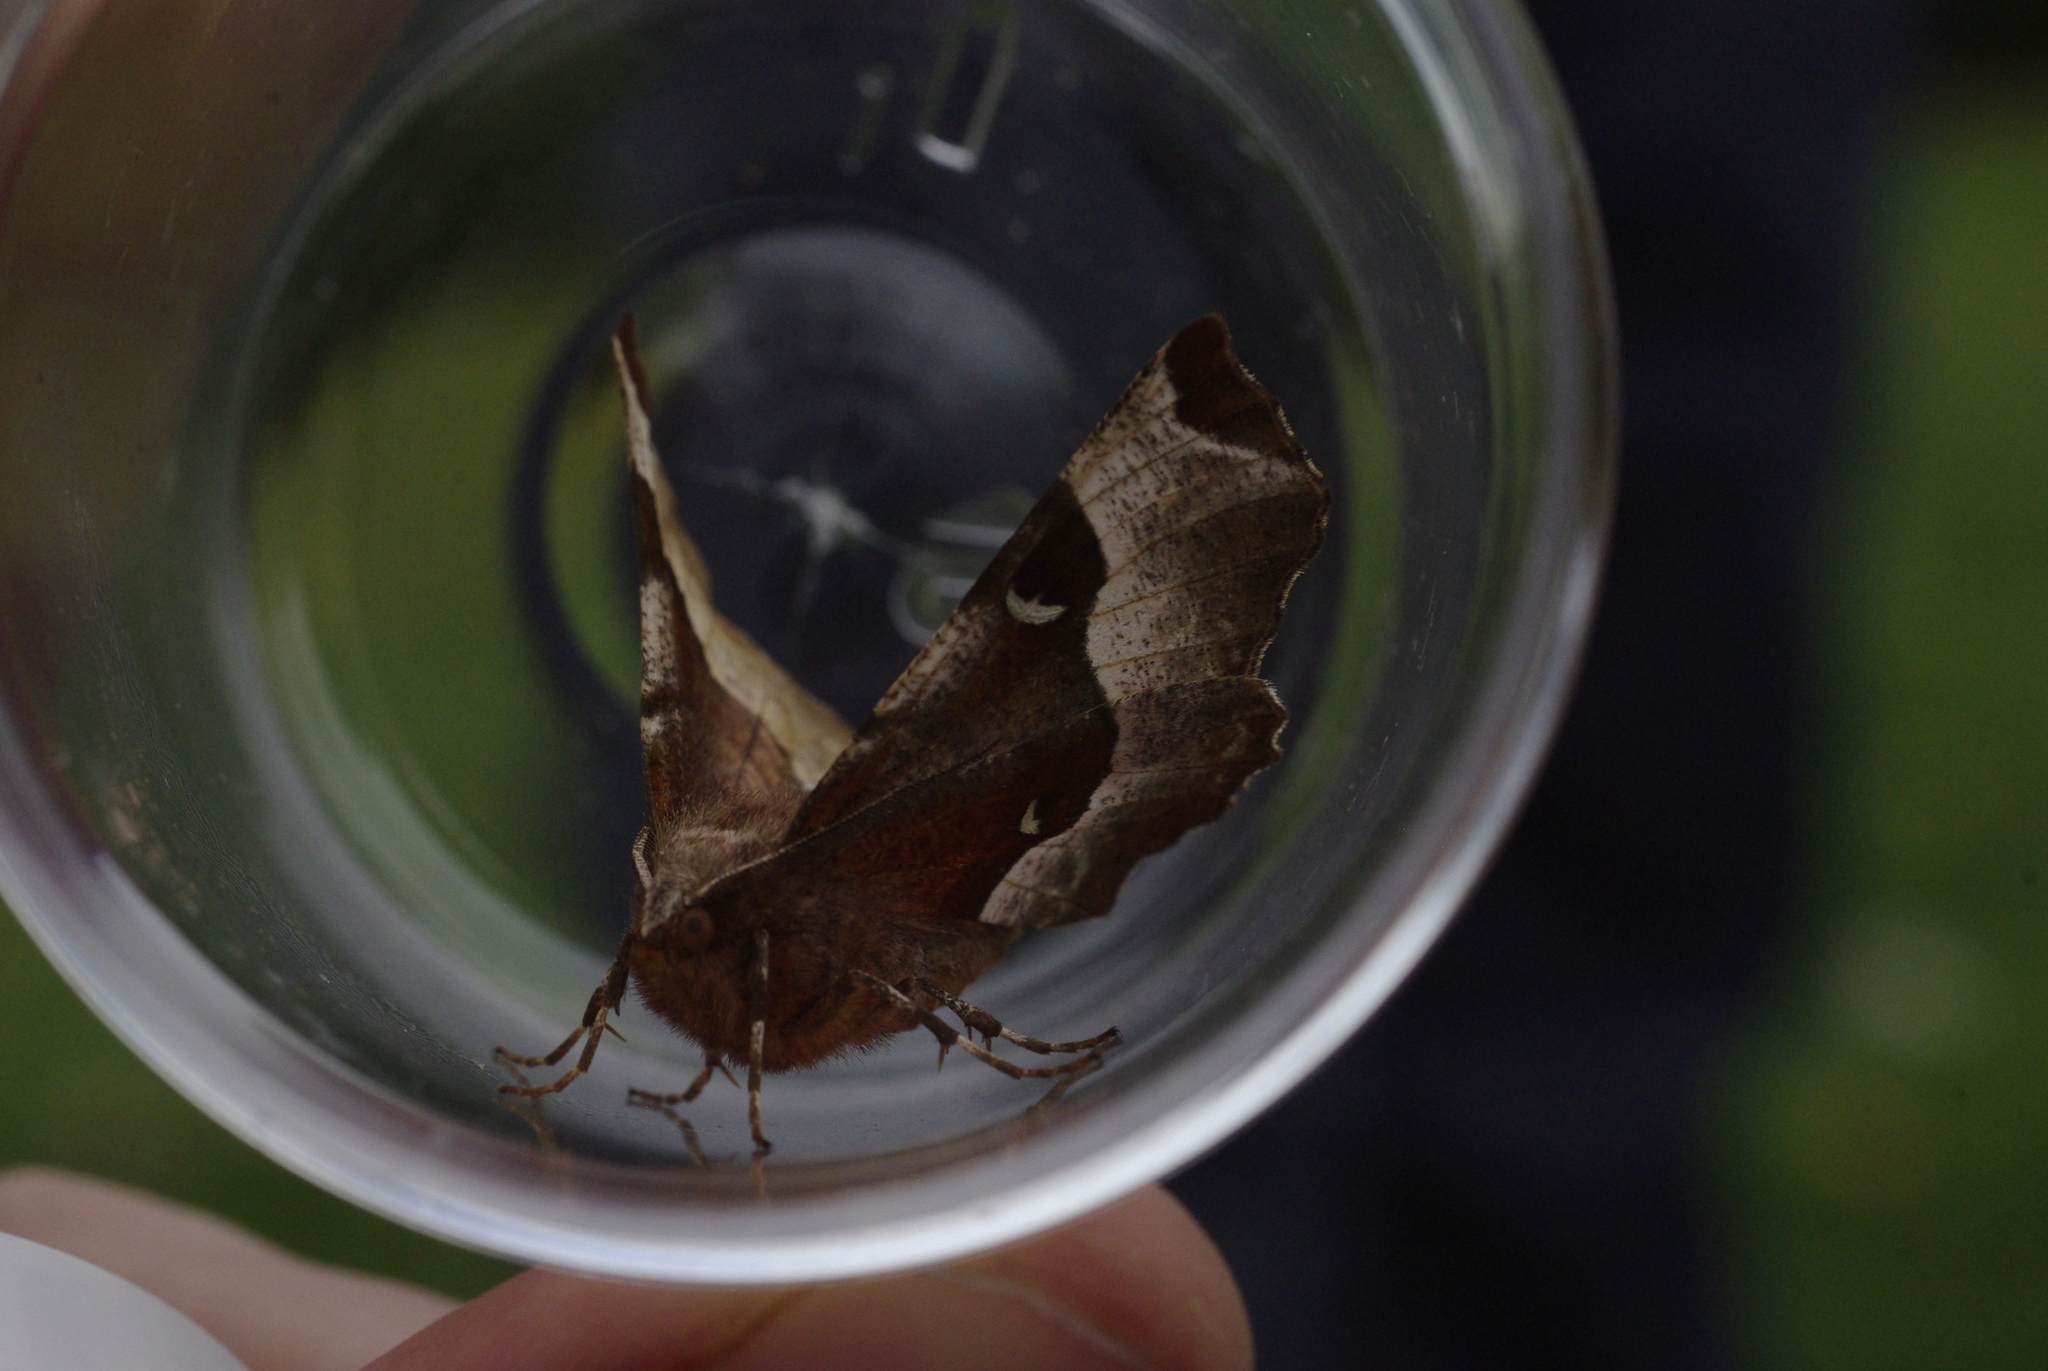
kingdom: Animalia
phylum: Arthropoda
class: Insecta
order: Lepidoptera
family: Geometridae
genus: Selenia
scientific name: Selenia tetralunaria
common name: Purple thorn
